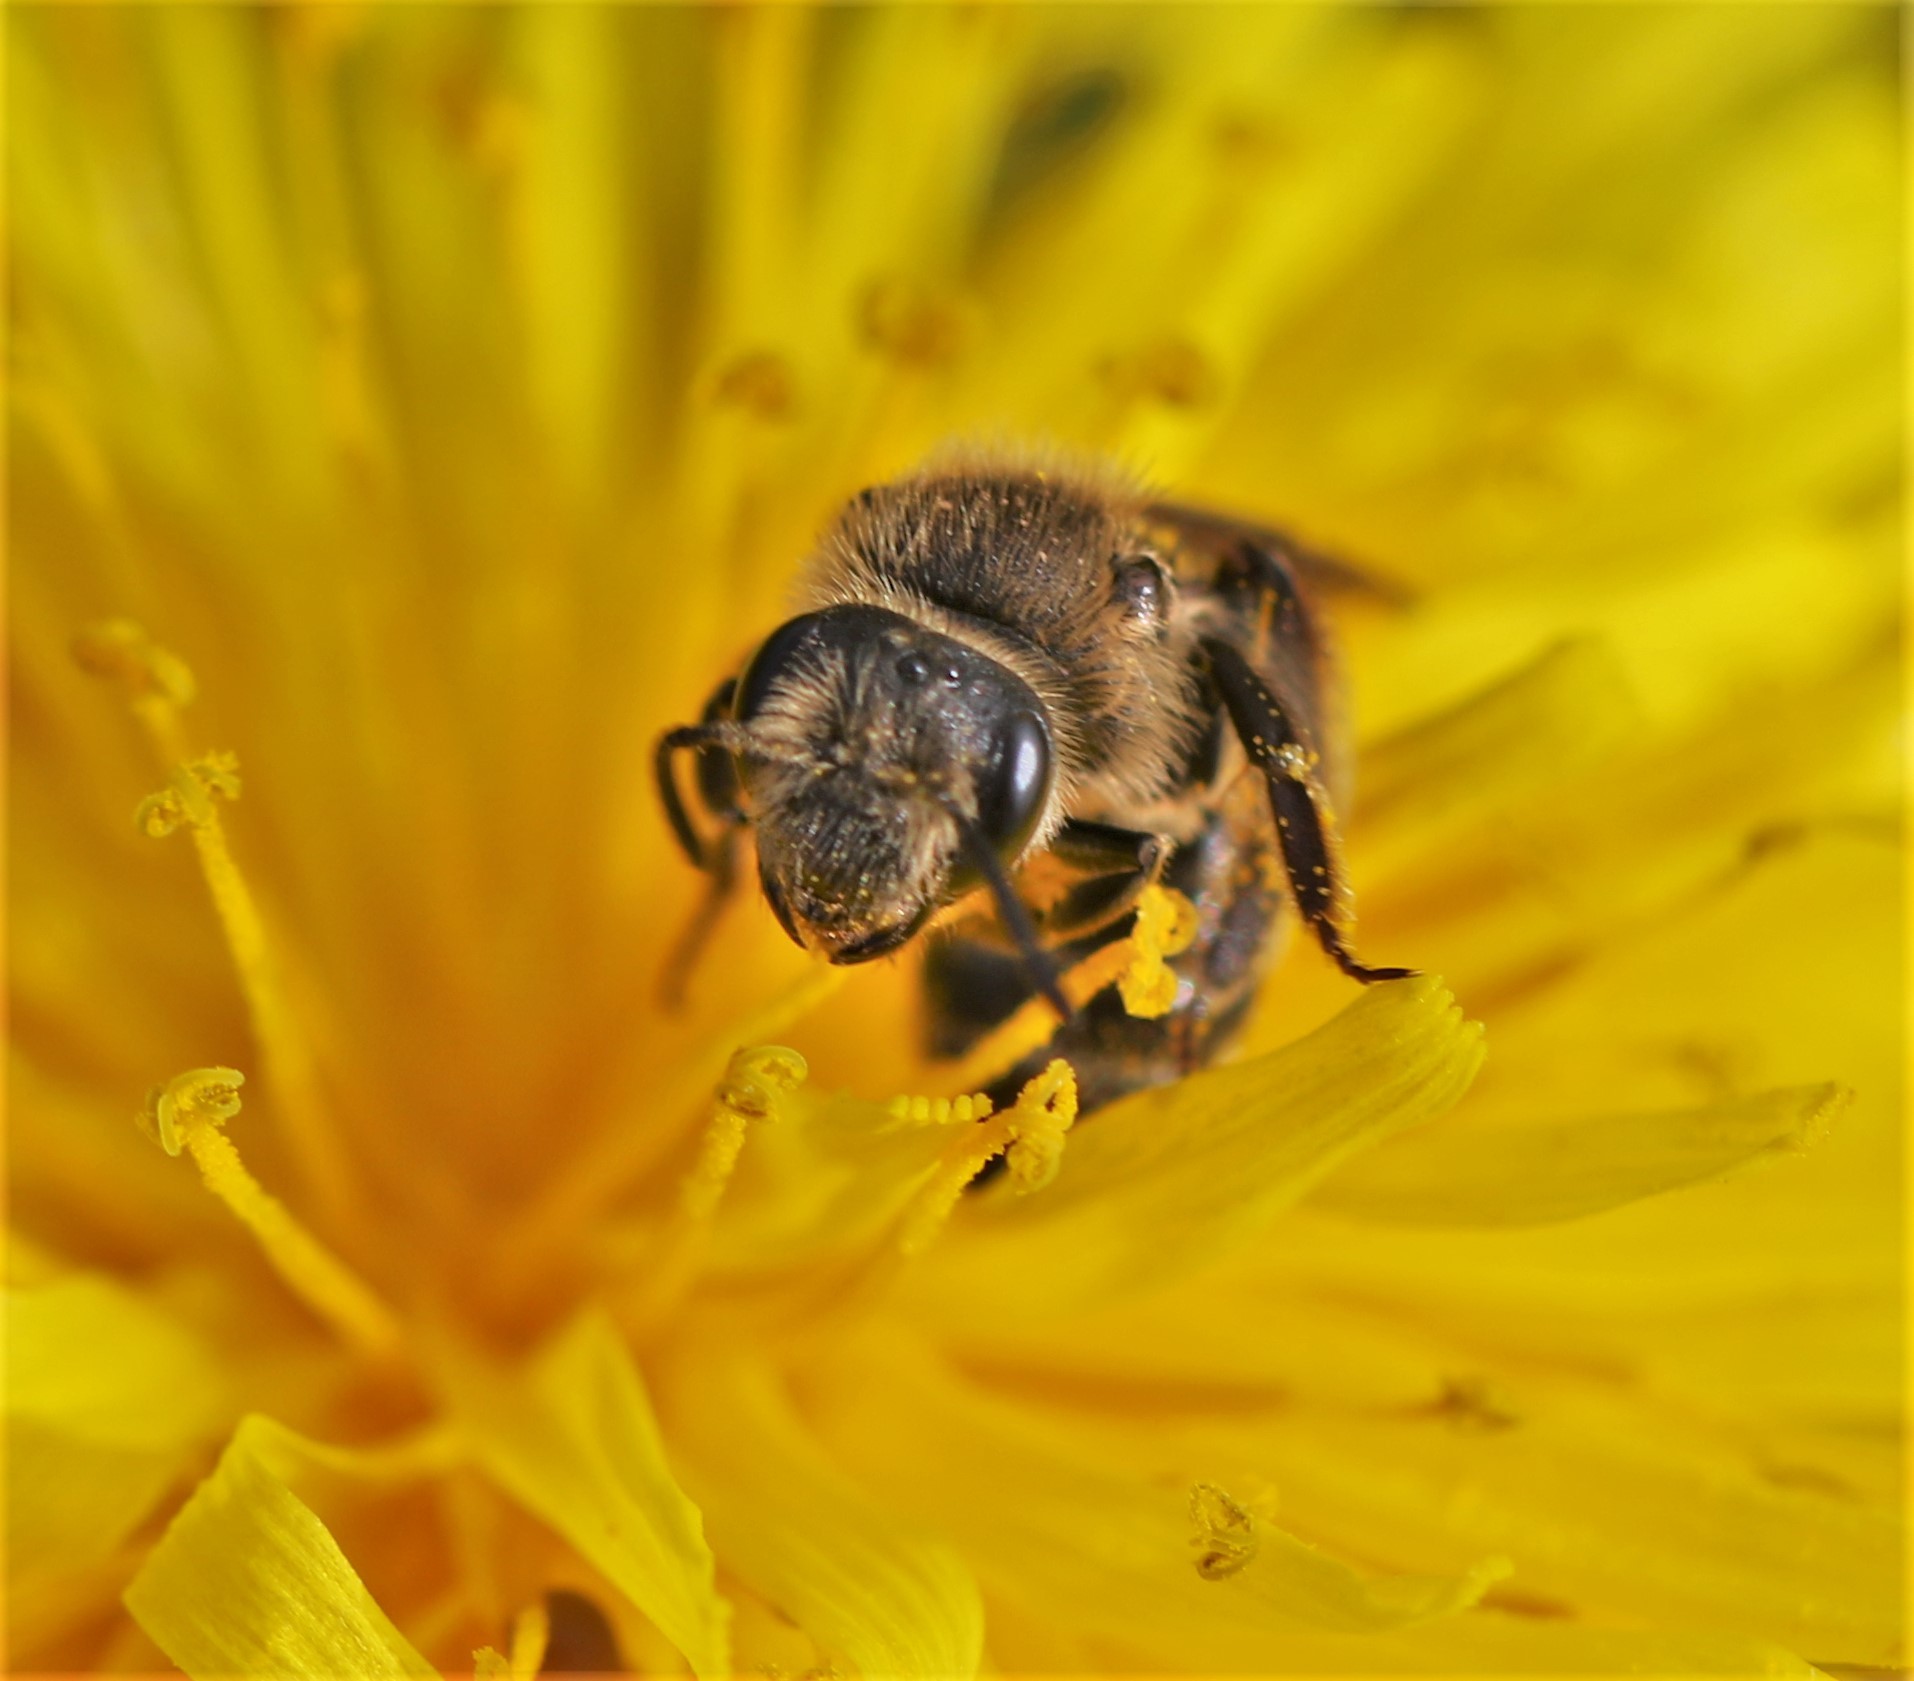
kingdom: Animalia
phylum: Arthropoda
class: Insecta
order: Hymenoptera
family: Andrenidae
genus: Andrena
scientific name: Andrena
